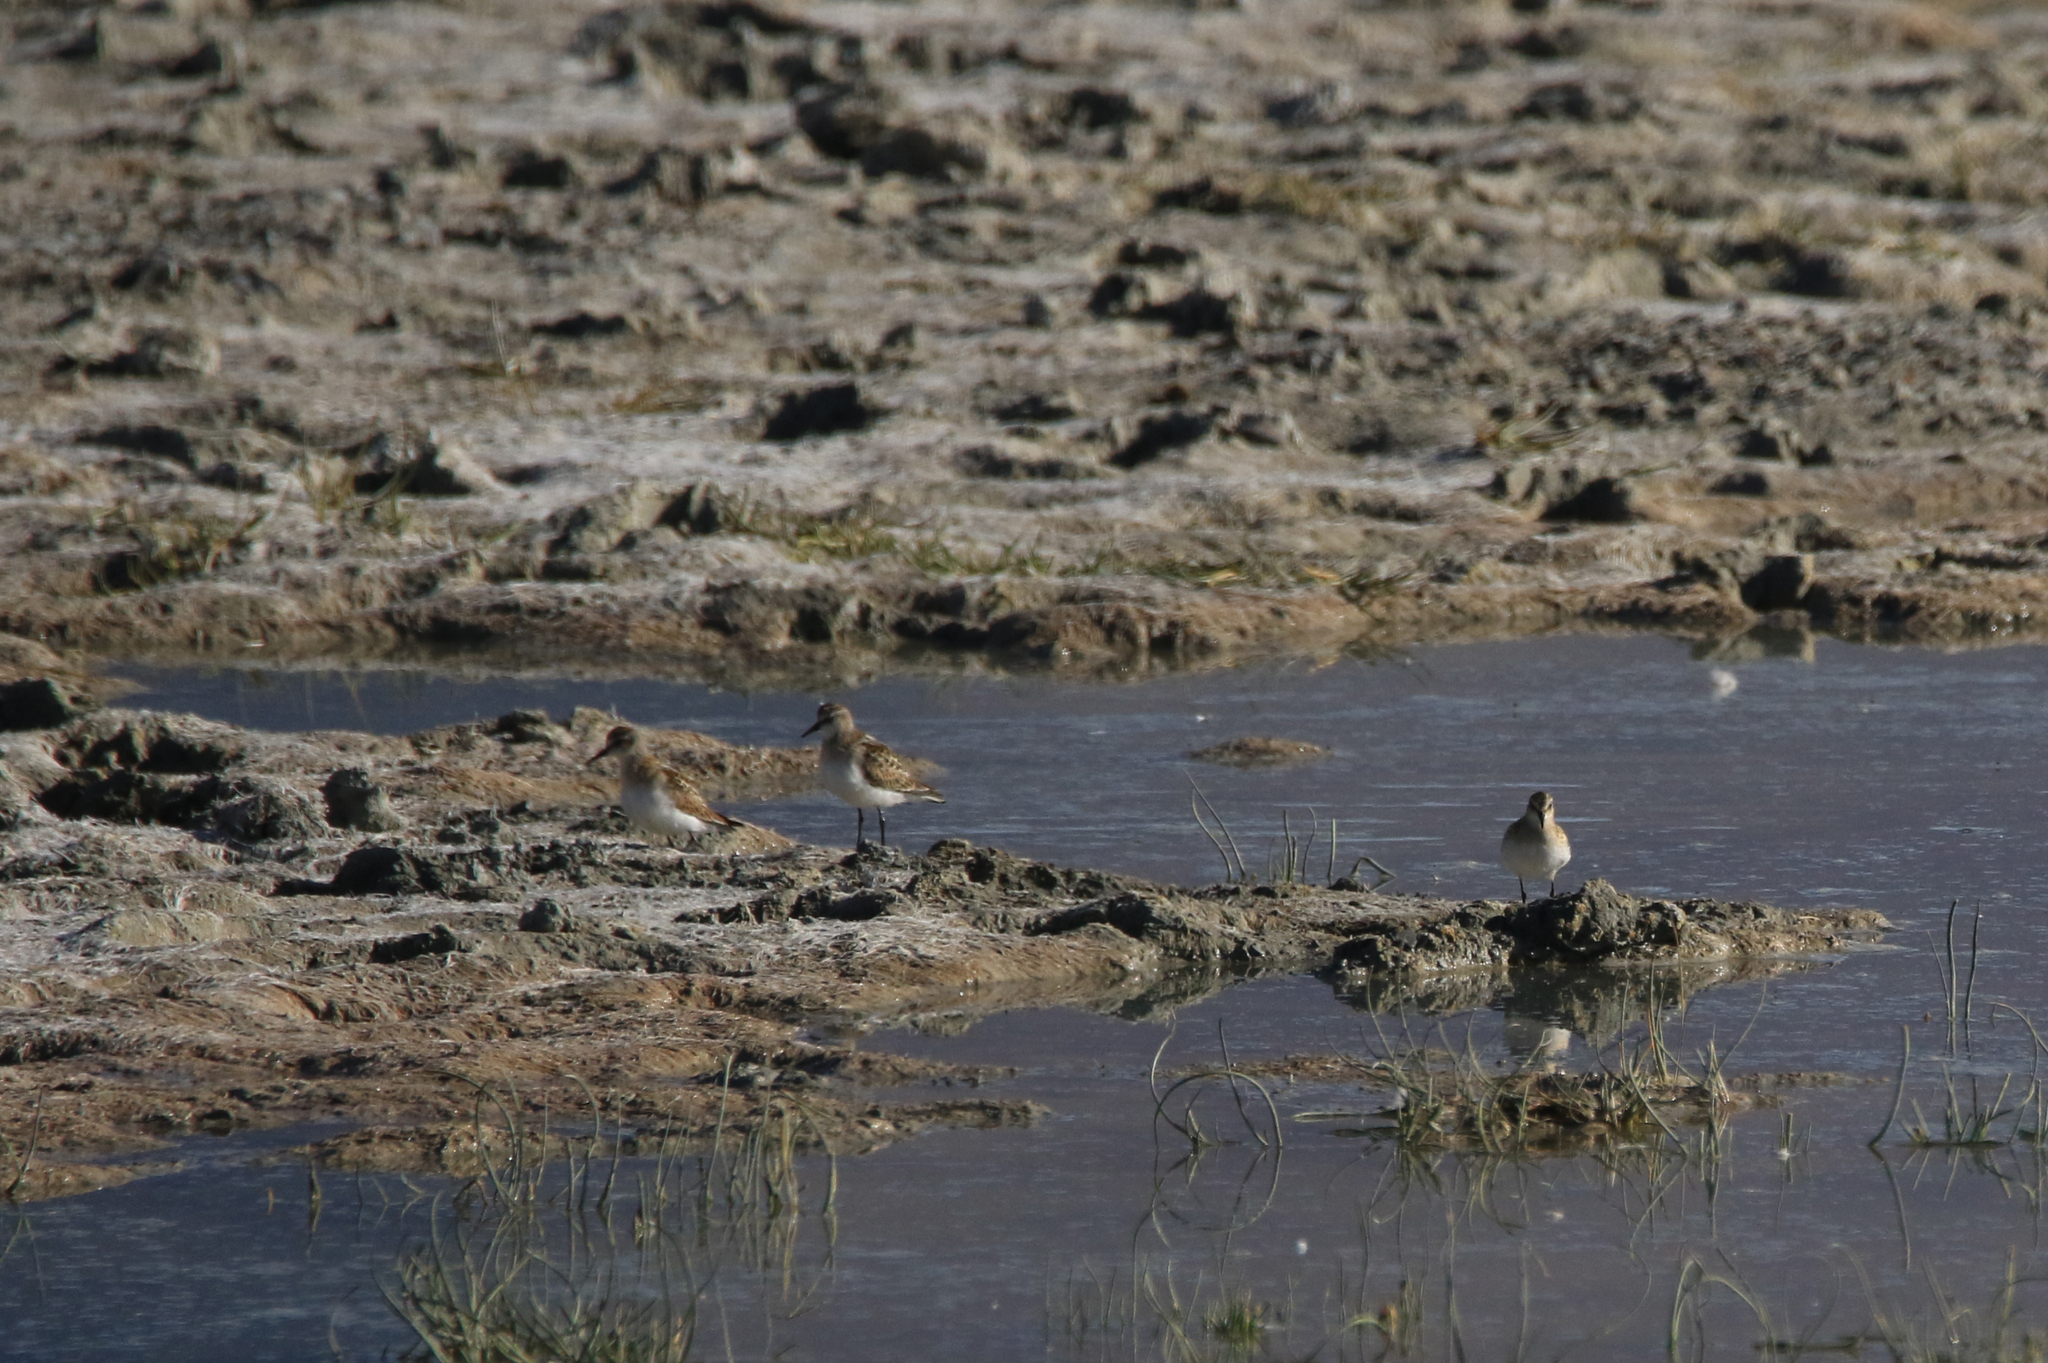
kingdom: Animalia
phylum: Chordata
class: Aves
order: Charadriiformes
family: Scolopacidae
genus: Calidris
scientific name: Calidris minuta
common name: Little stint
